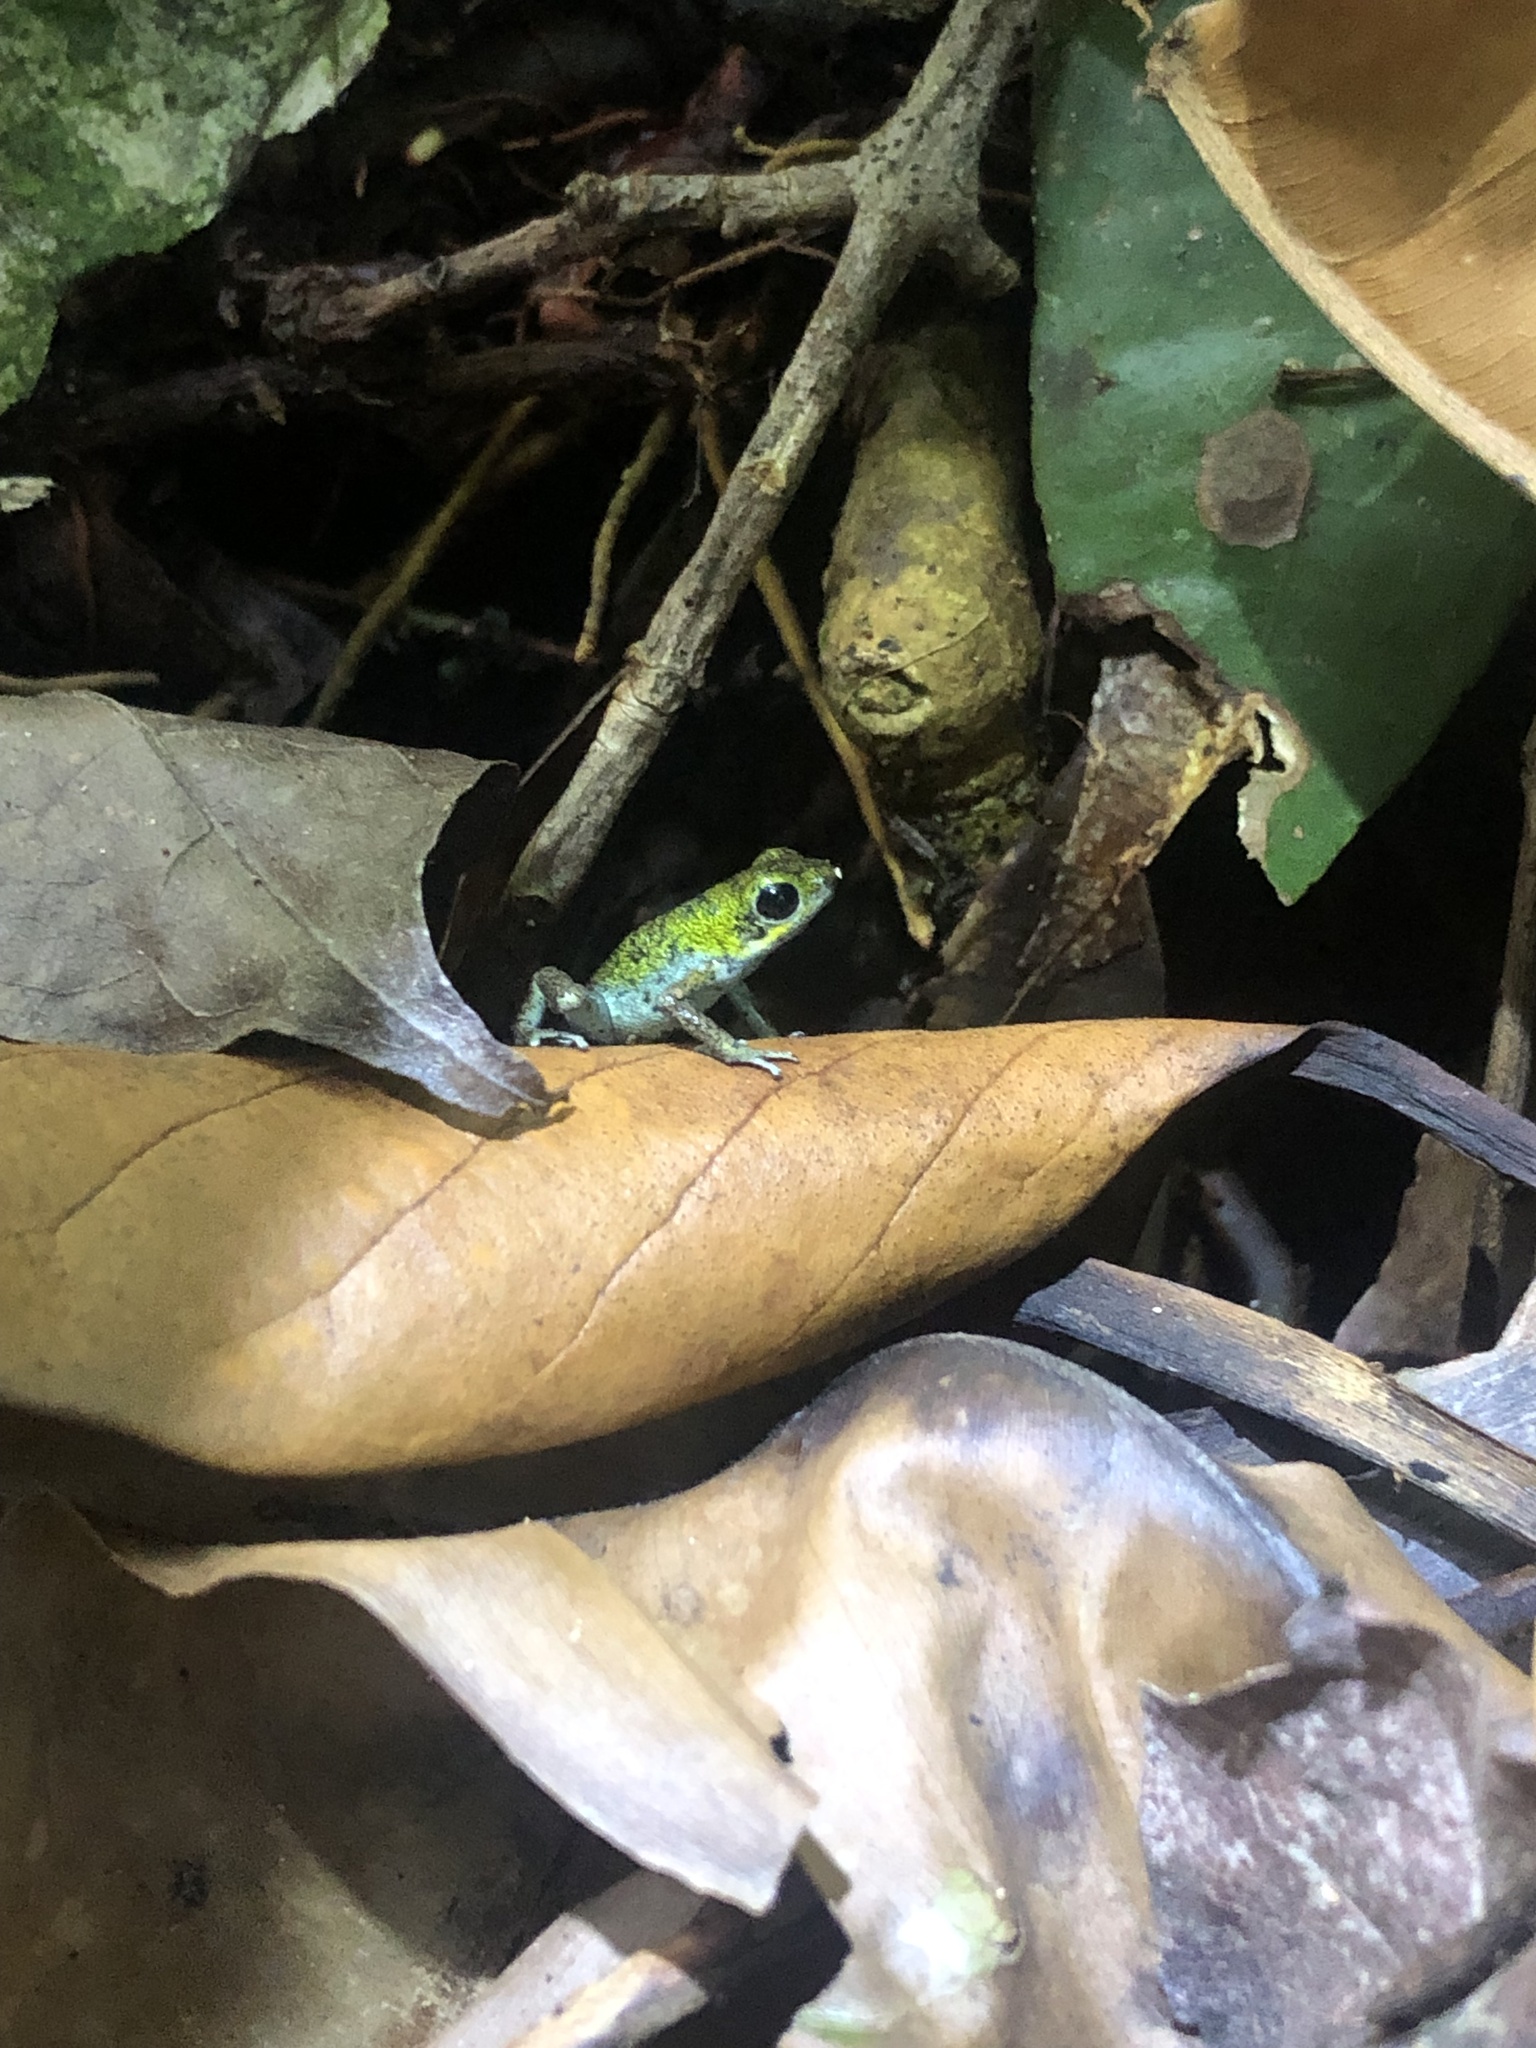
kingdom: Animalia
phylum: Chordata
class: Amphibia
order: Anura
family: Dendrobatidae
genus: Oophaga
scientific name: Oophaga pumilio
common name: Flaming poison frog
